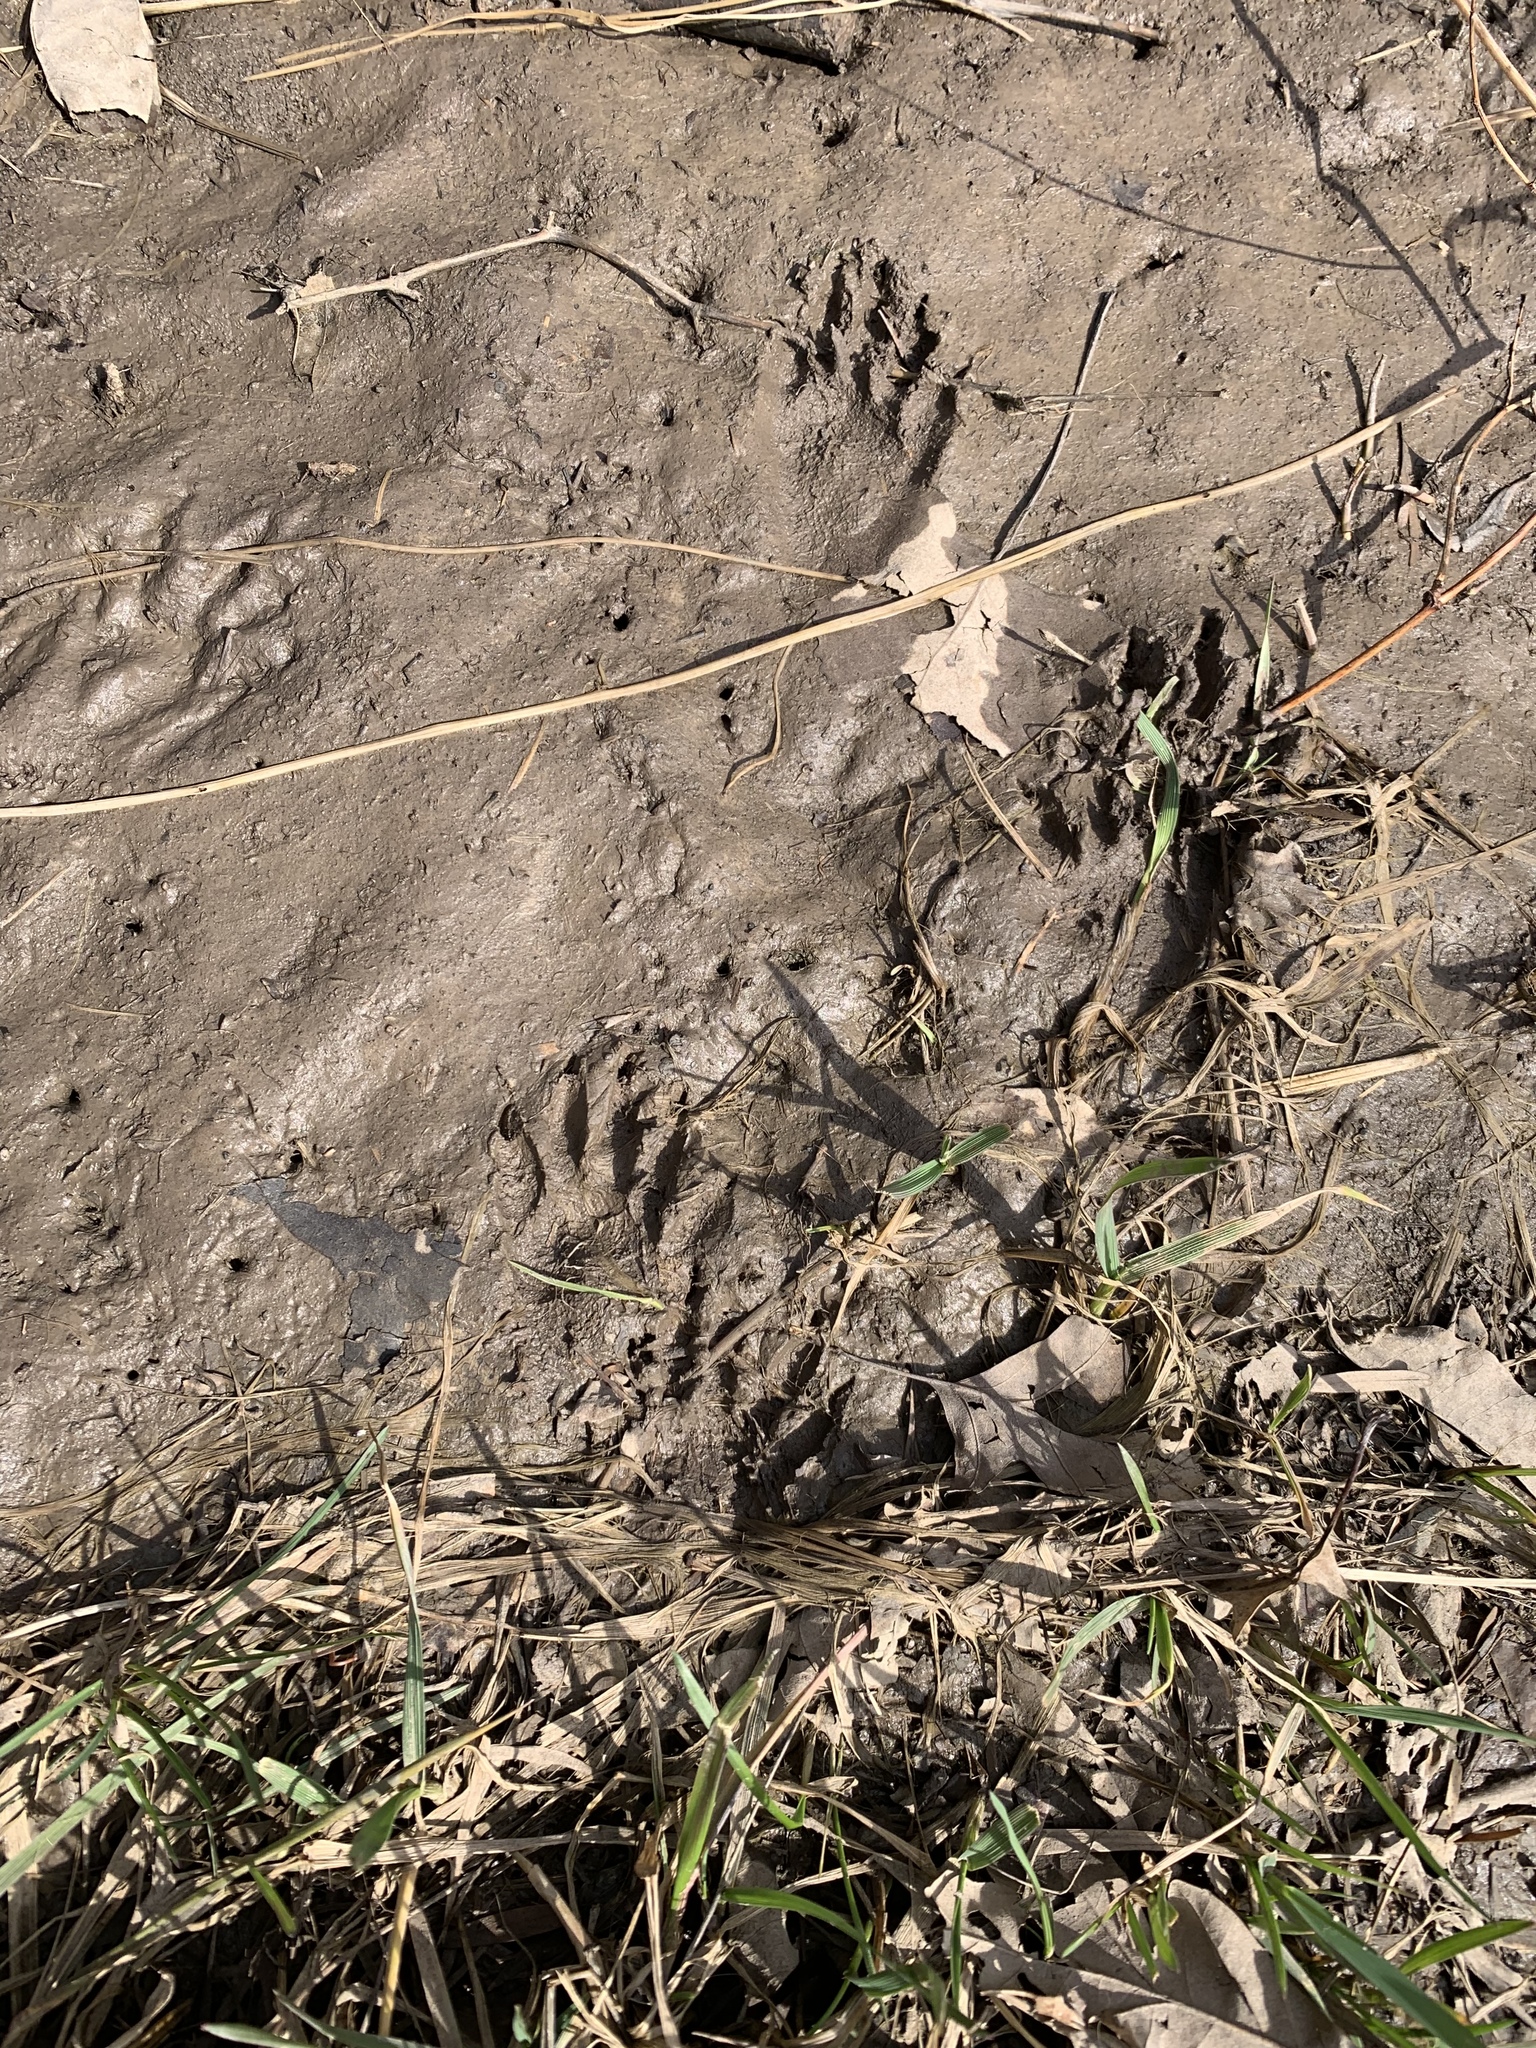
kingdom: Animalia
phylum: Chordata
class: Mammalia
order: Carnivora
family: Procyonidae
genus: Procyon
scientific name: Procyon lotor
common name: Raccoon
